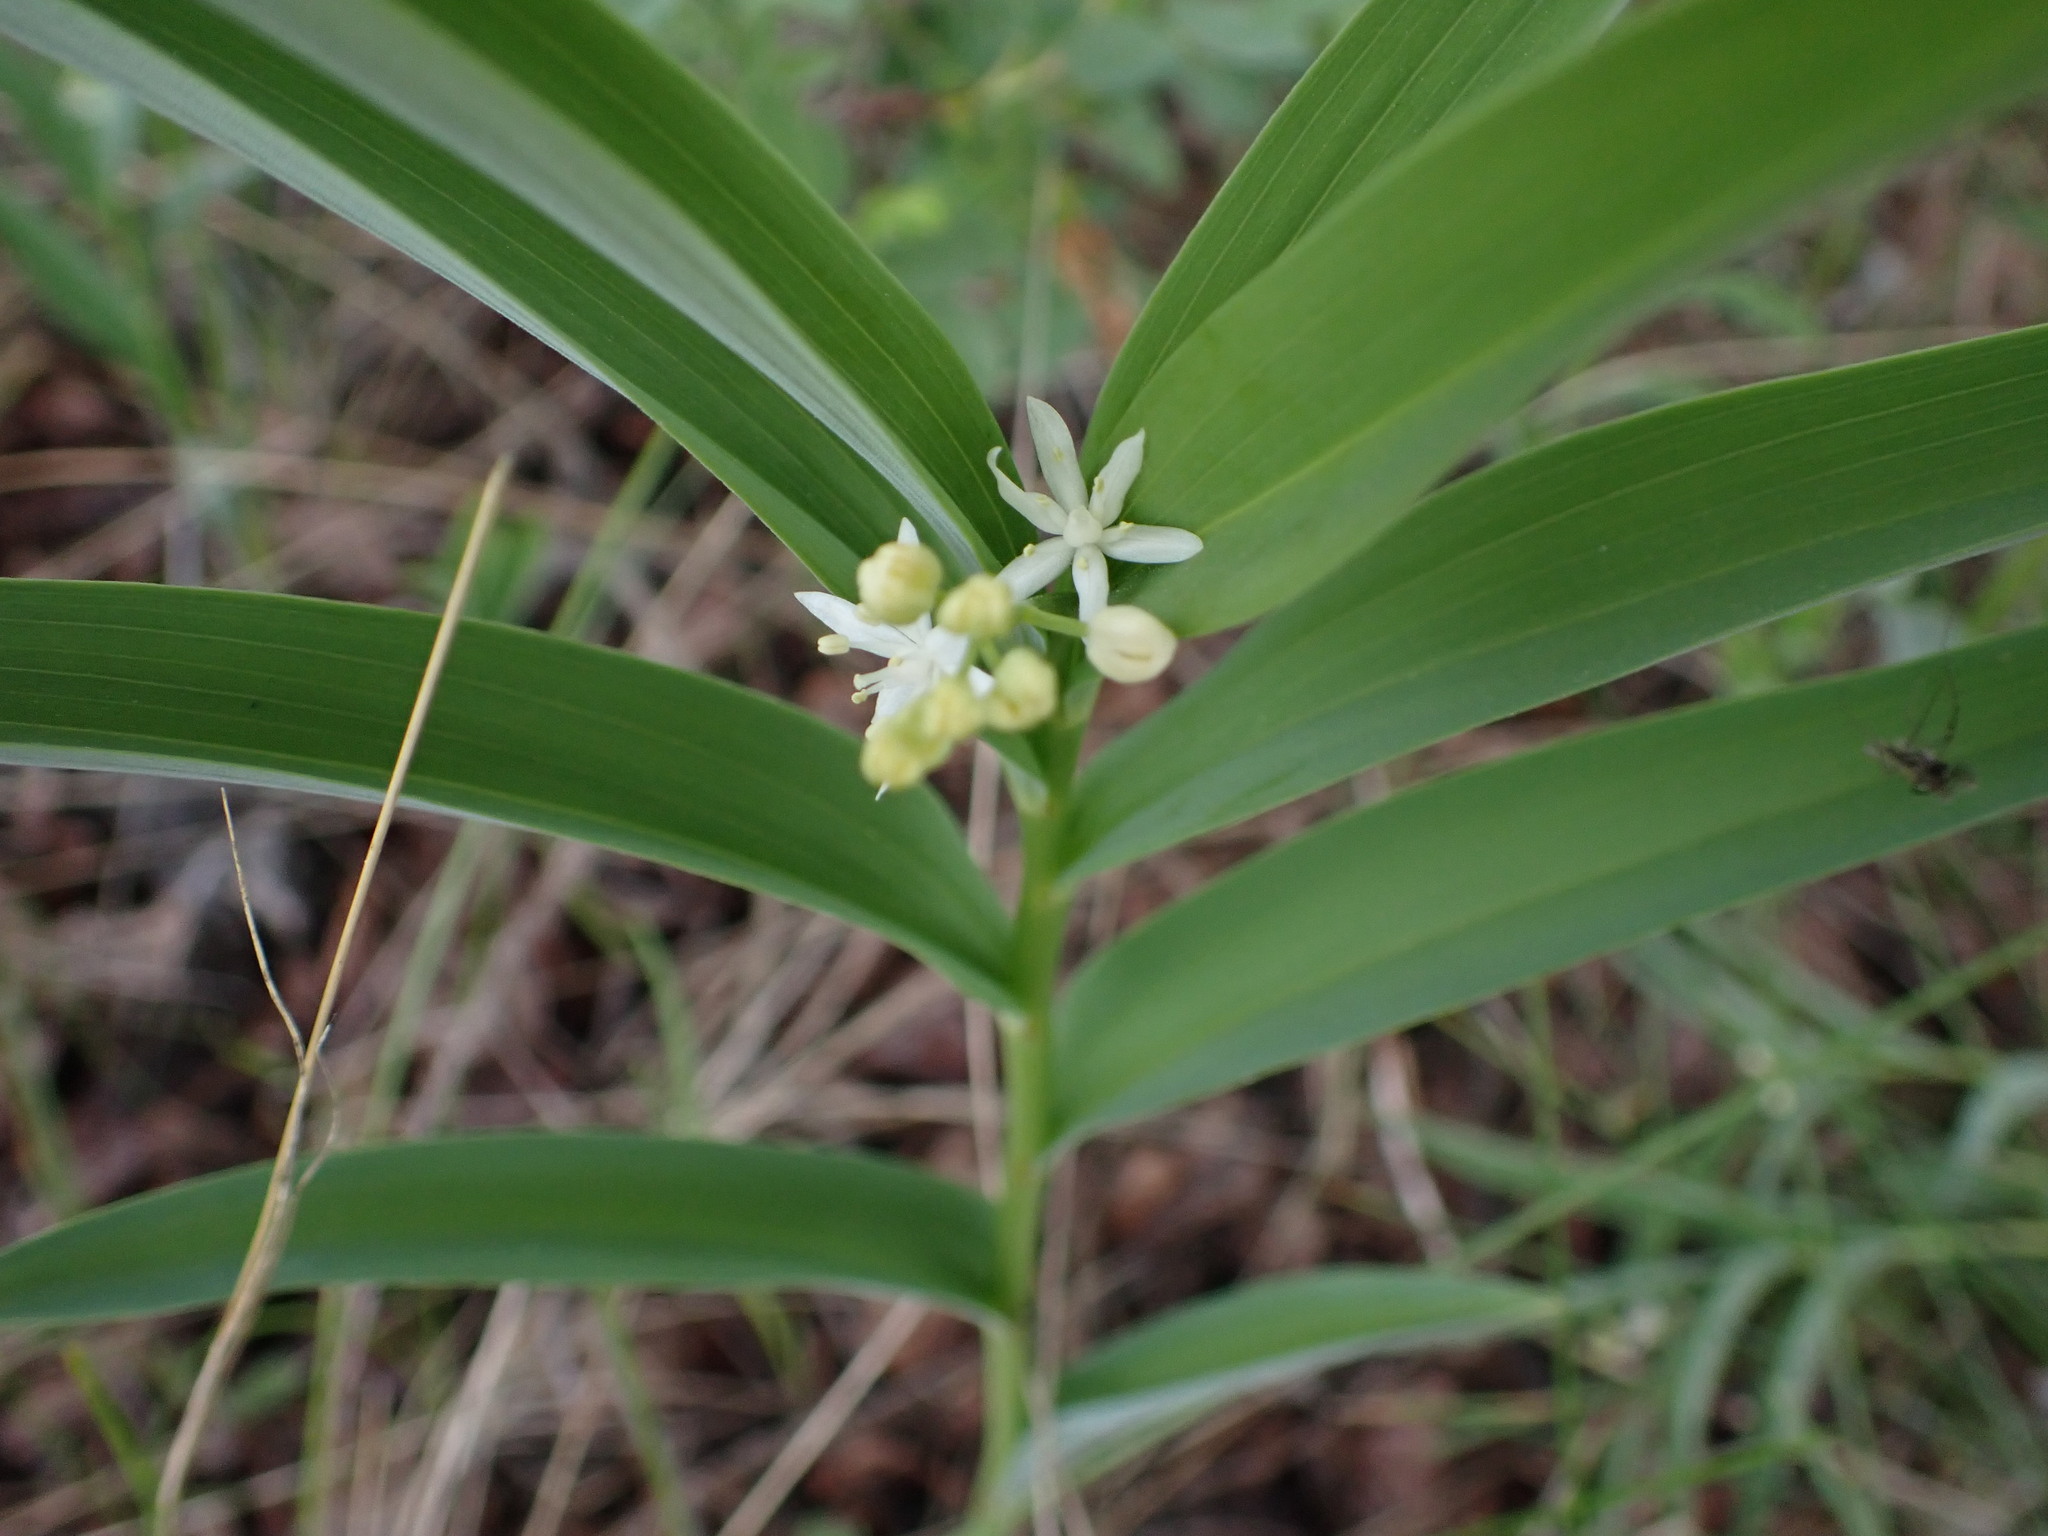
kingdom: Plantae
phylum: Tracheophyta
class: Liliopsida
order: Asparagales
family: Asparagaceae
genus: Maianthemum
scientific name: Maianthemum stellatum
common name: Little false solomon's seal
